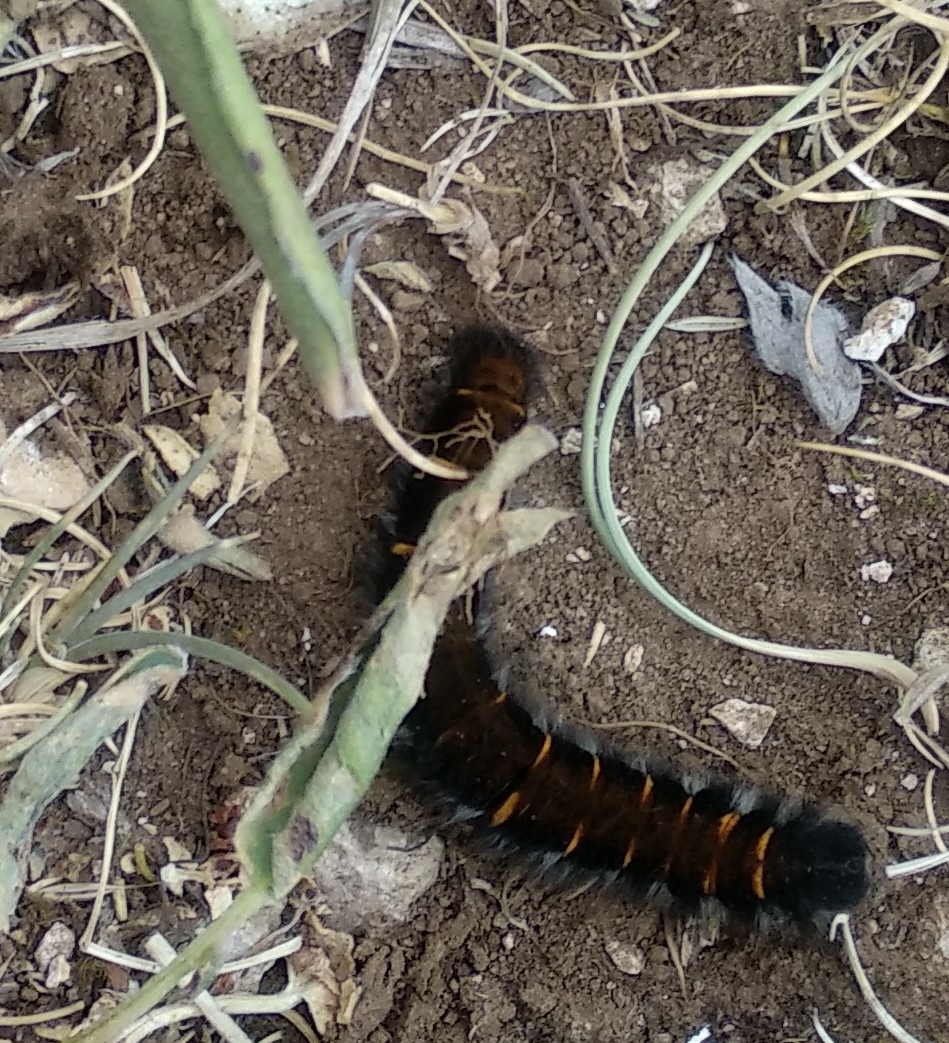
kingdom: Animalia
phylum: Arthropoda
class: Insecta
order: Lepidoptera
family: Lasiocampidae
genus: Macrothylacia
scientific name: Macrothylacia rubi
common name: Fox moth
